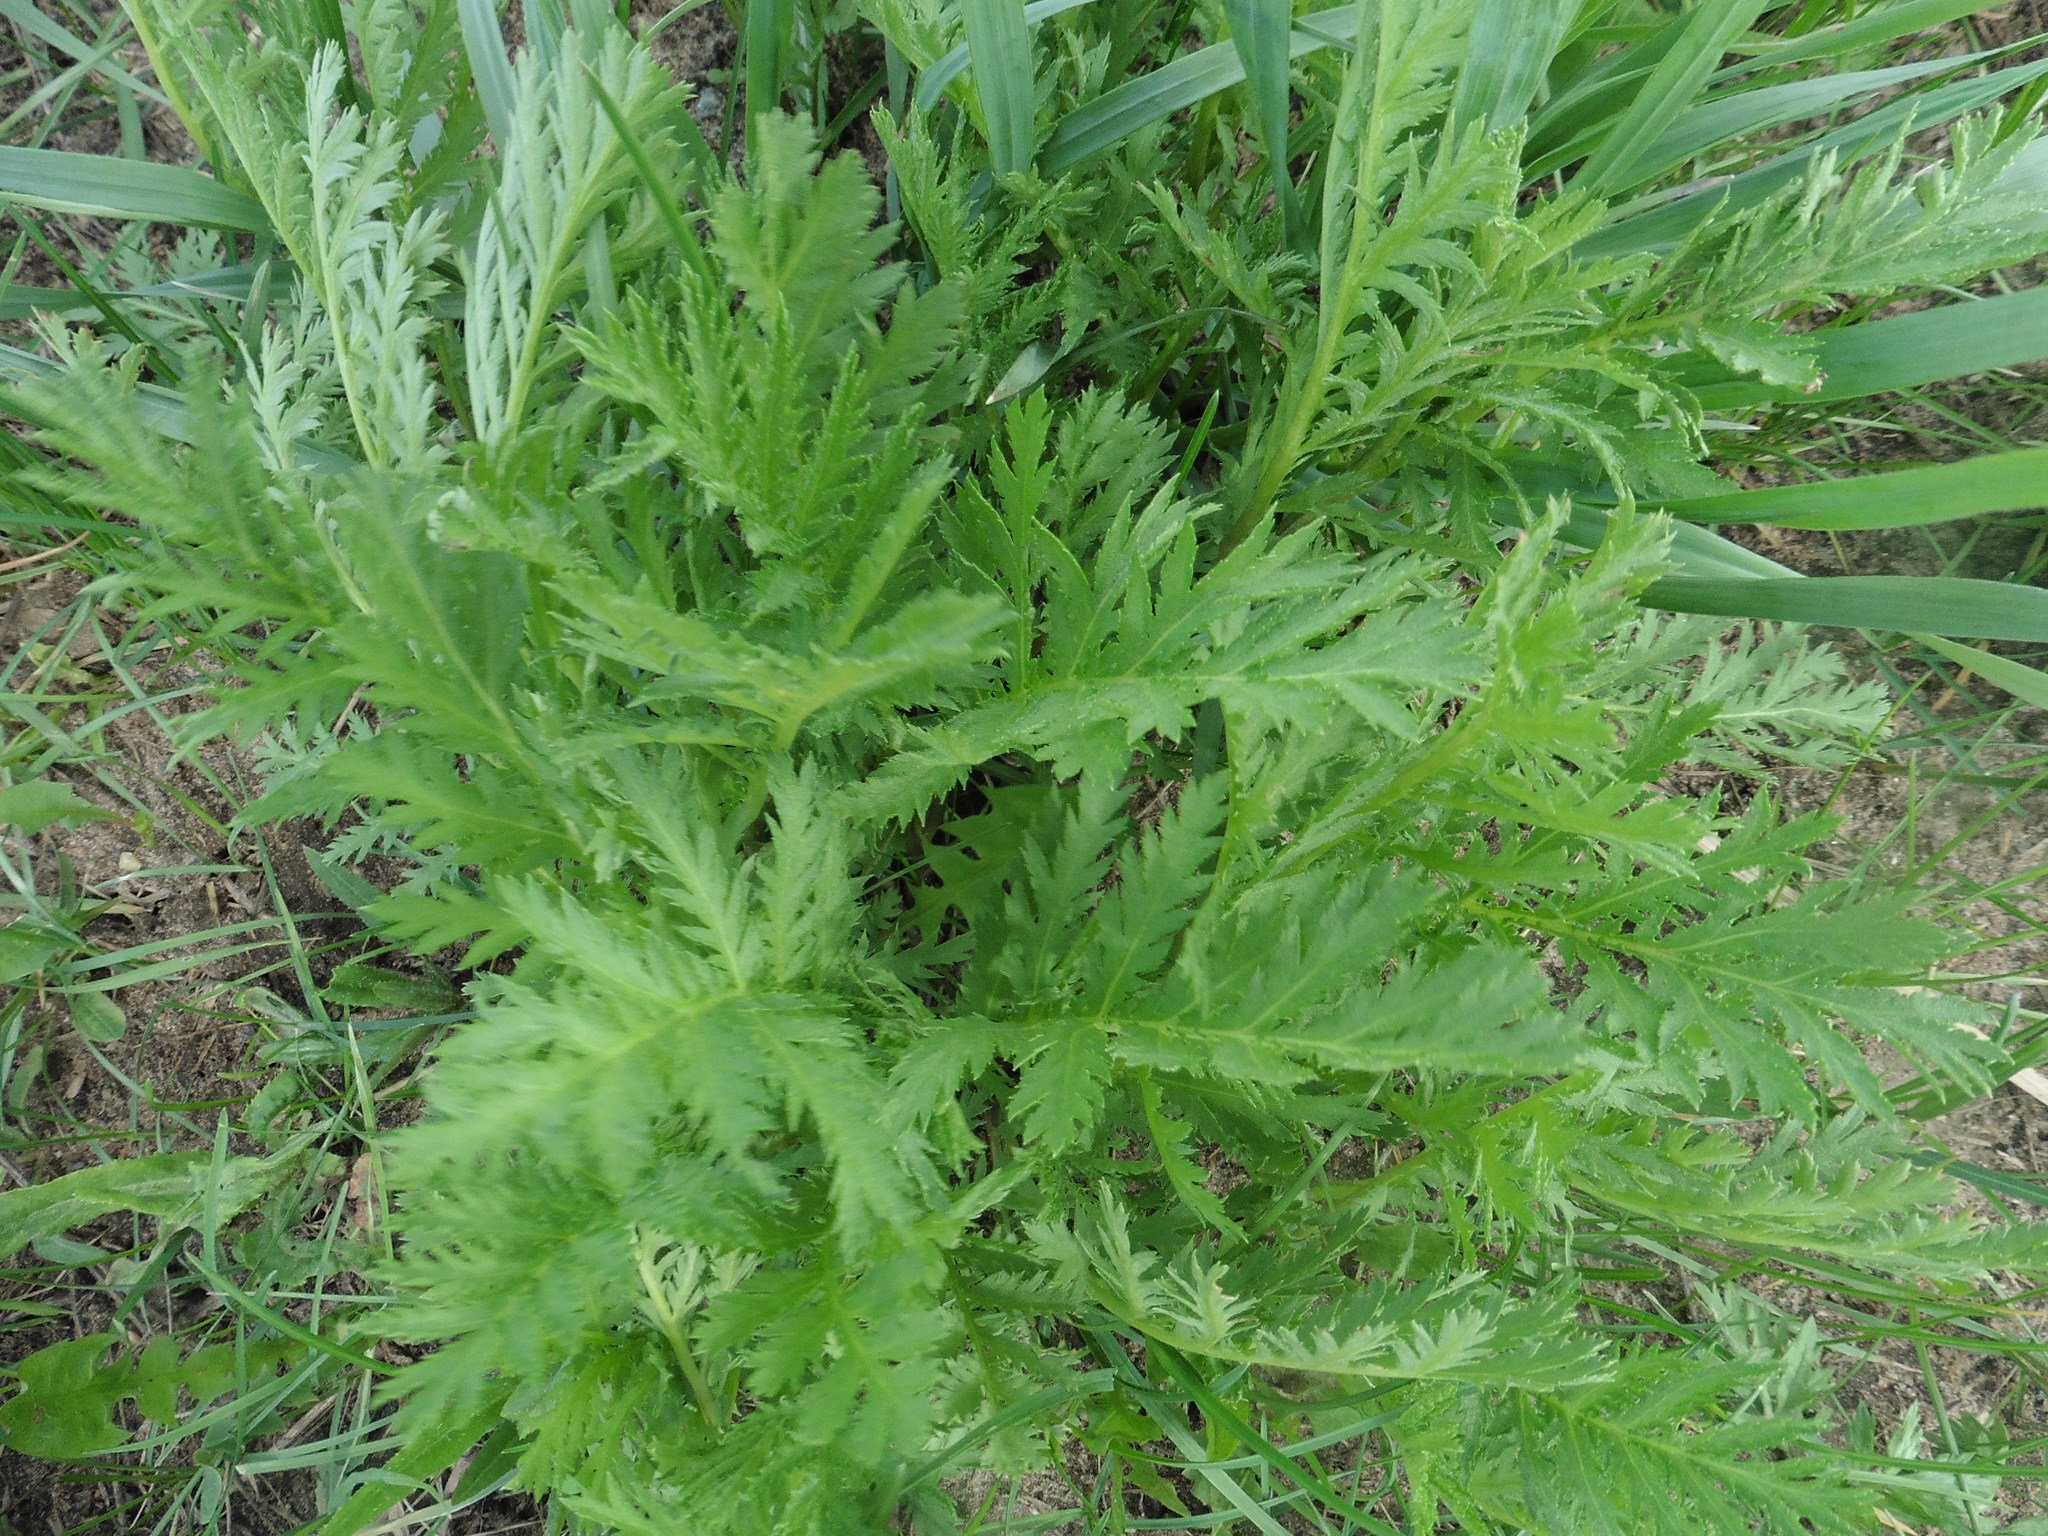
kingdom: Plantae
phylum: Tracheophyta
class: Magnoliopsida
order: Asterales
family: Asteraceae
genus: Tanacetum
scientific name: Tanacetum vulgare
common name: Common tansy
